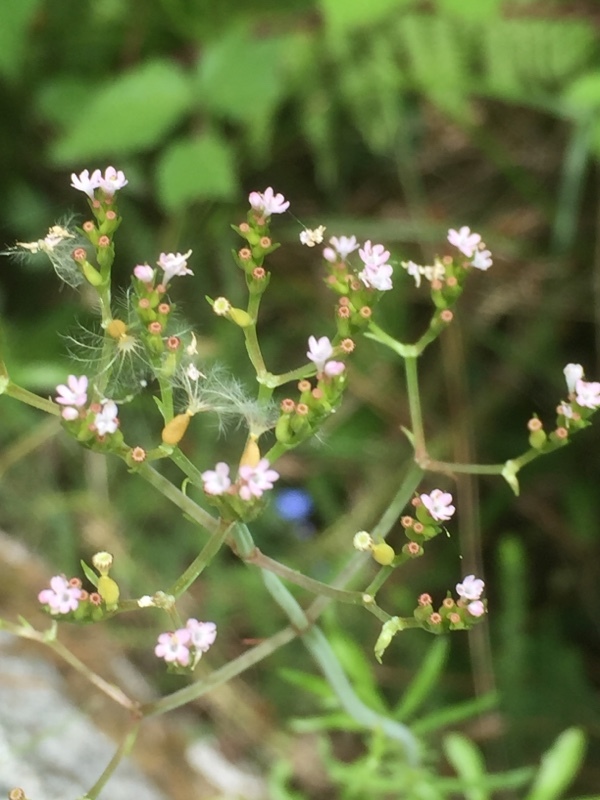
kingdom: Plantae
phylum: Tracheophyta
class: Magnoliopsida
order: Dipsacales
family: Caprifoliaceae
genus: Centranthus
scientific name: Centranthus calcitrapae
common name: Annual valerian
